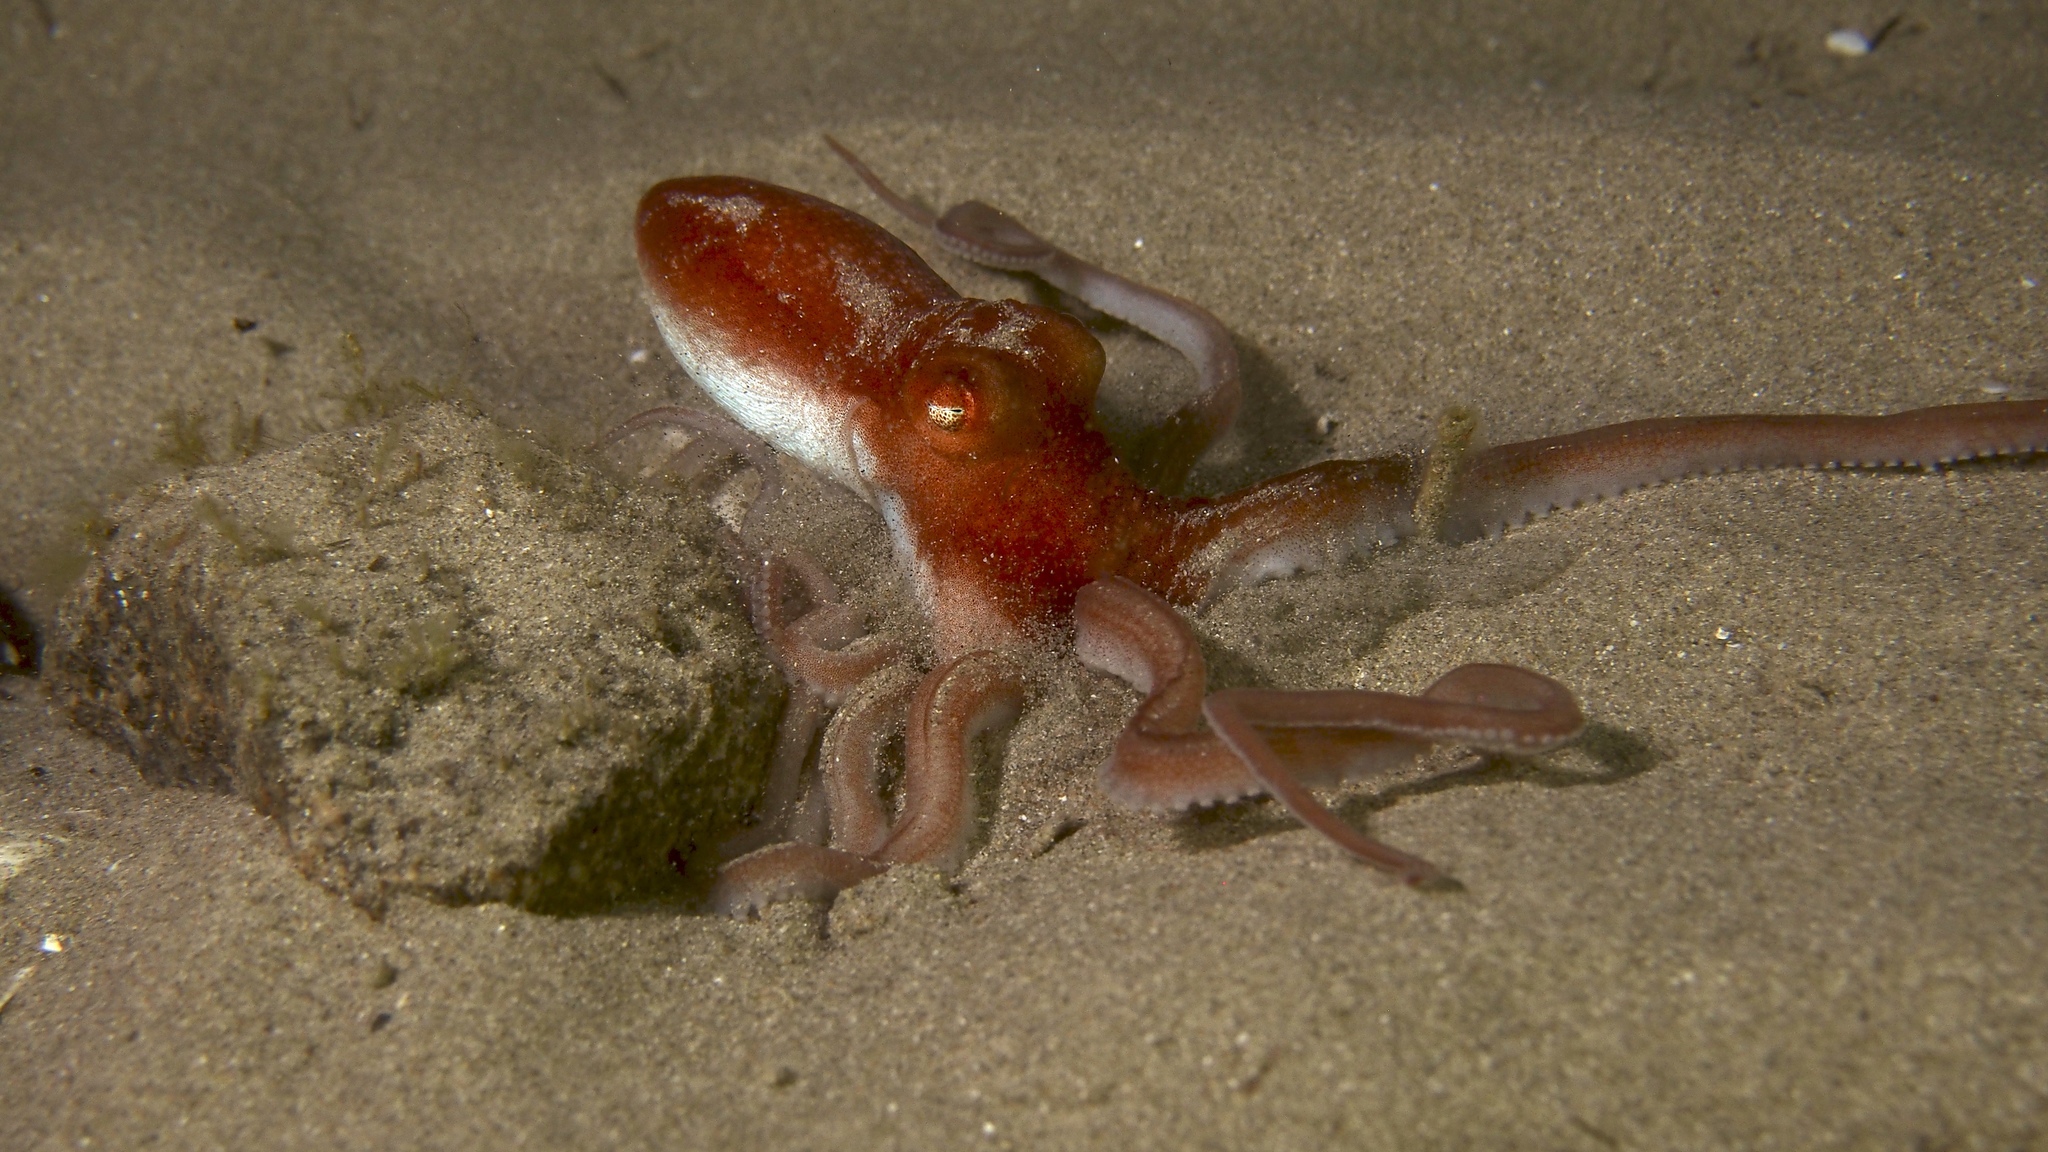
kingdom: Animalia
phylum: Mollusca
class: Cephalopoda
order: Octopoda
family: Octopodidae
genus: Octopus
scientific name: Octopus kaurna
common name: Southern sand octopus
